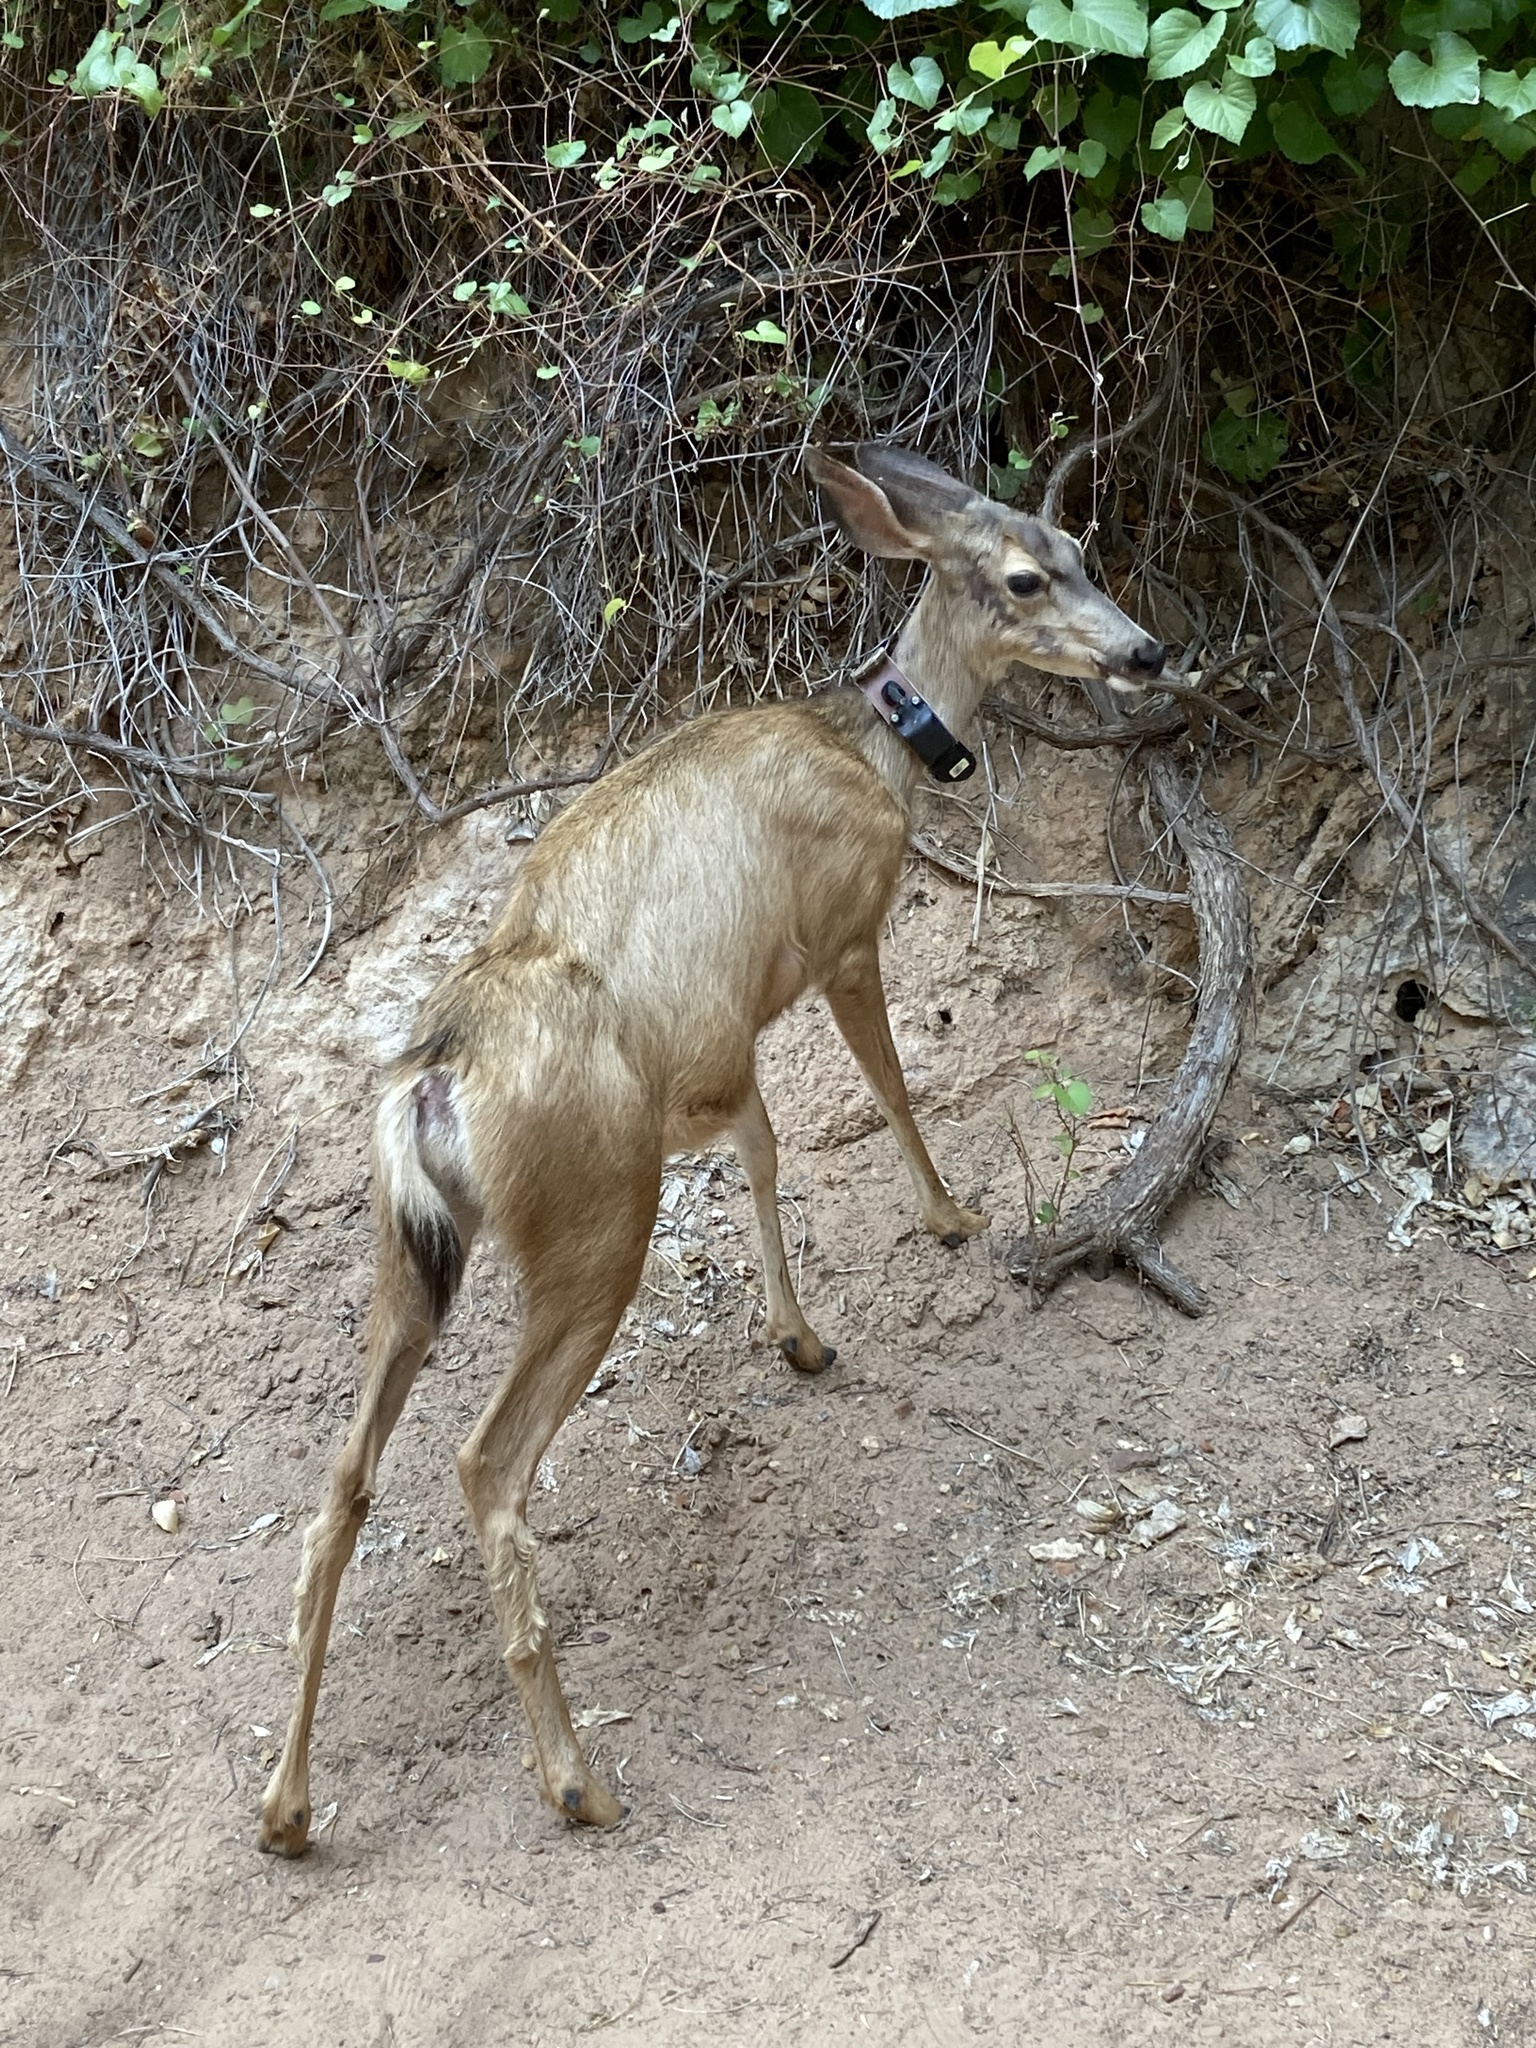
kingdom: Animalia
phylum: Chordata
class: Mammalia
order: Artiodactyla
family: Cervidae
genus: Odocoileus
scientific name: Odocoileus hemionus
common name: Mule deer
